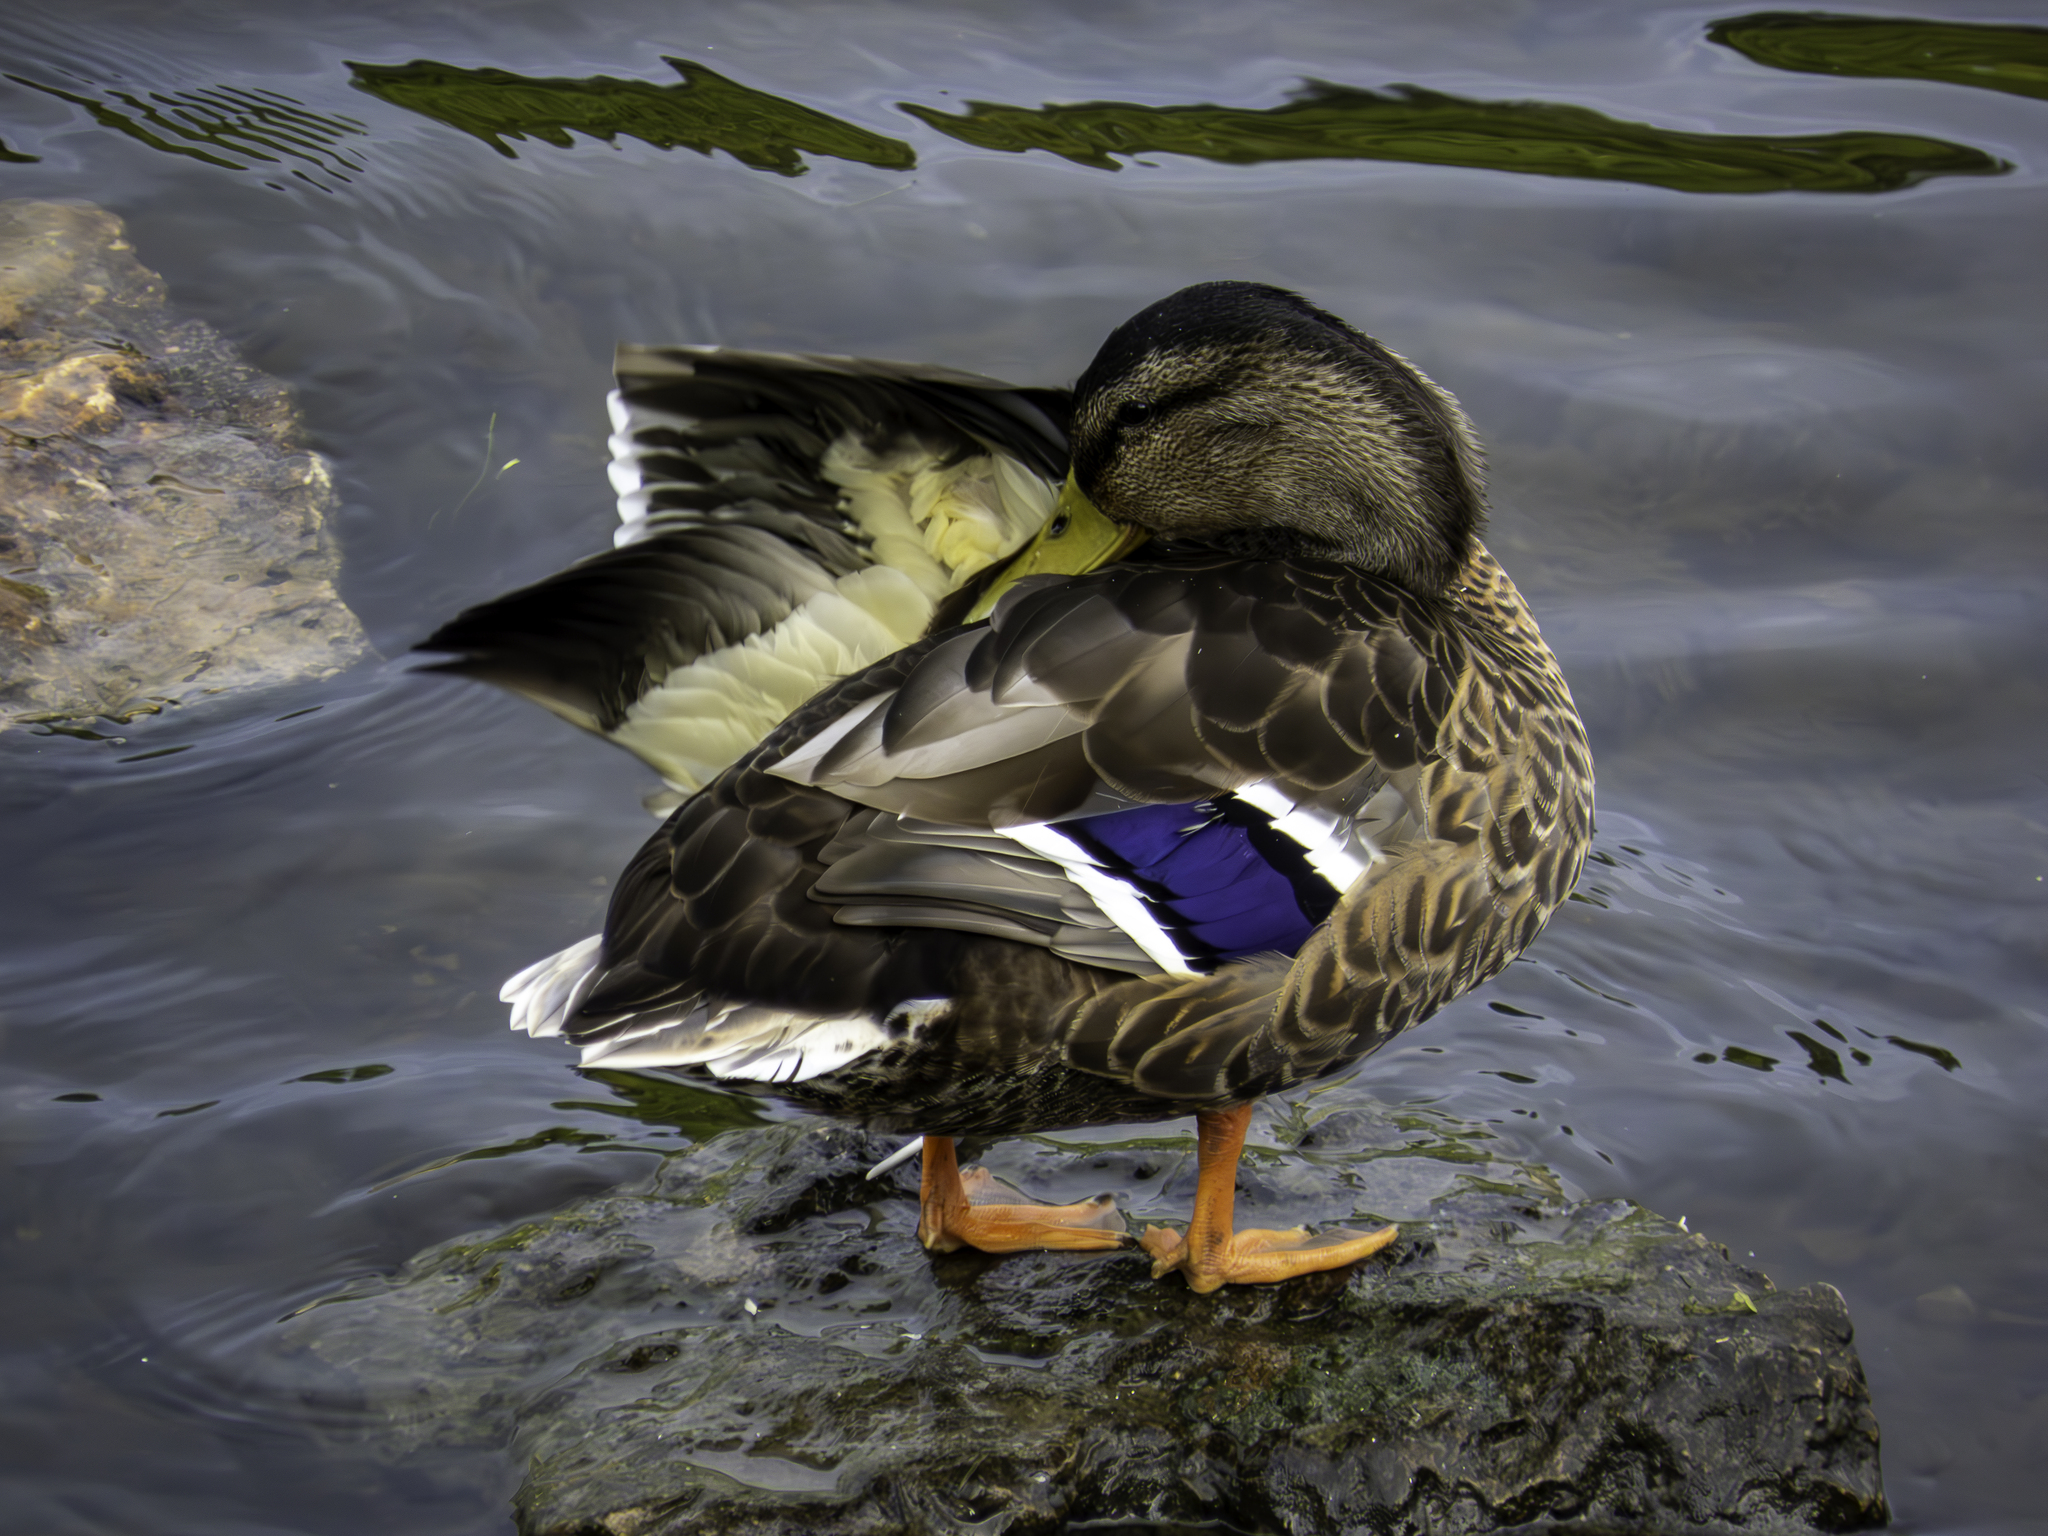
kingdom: Animalia
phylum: Chordata
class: Aves
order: Anseriformes
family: Anatidae
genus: Anas
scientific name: Anas platyrhynchos
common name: Mallard
